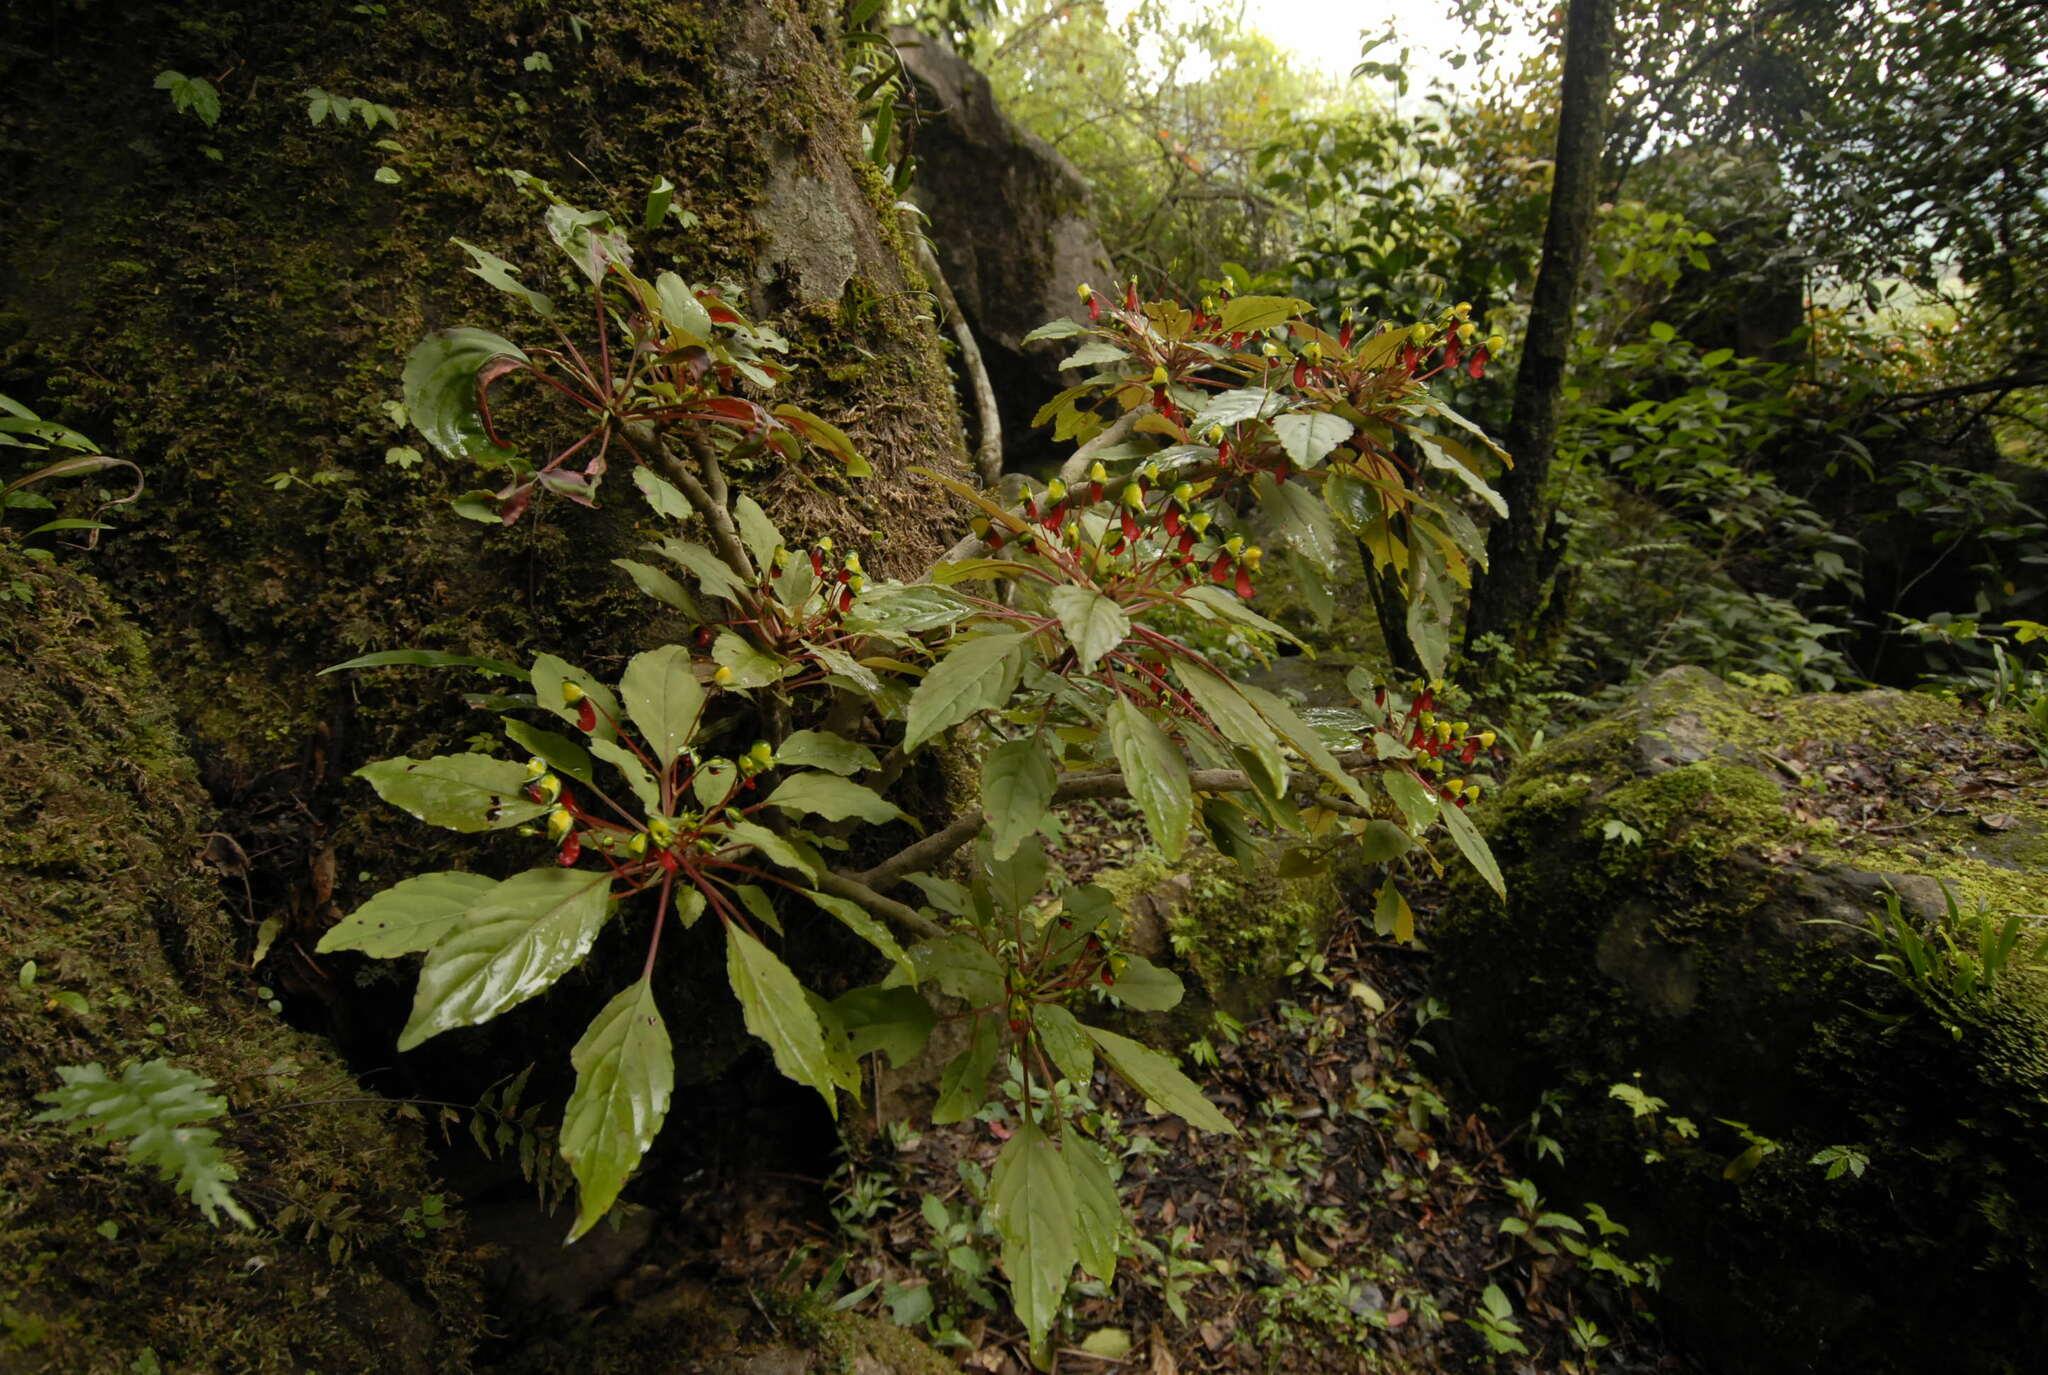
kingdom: Plantae
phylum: Tracheophyta
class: Magnoliopsida
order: Ericales
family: Balsaminaceae
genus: Impatiens
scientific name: Impatiens parasitica
